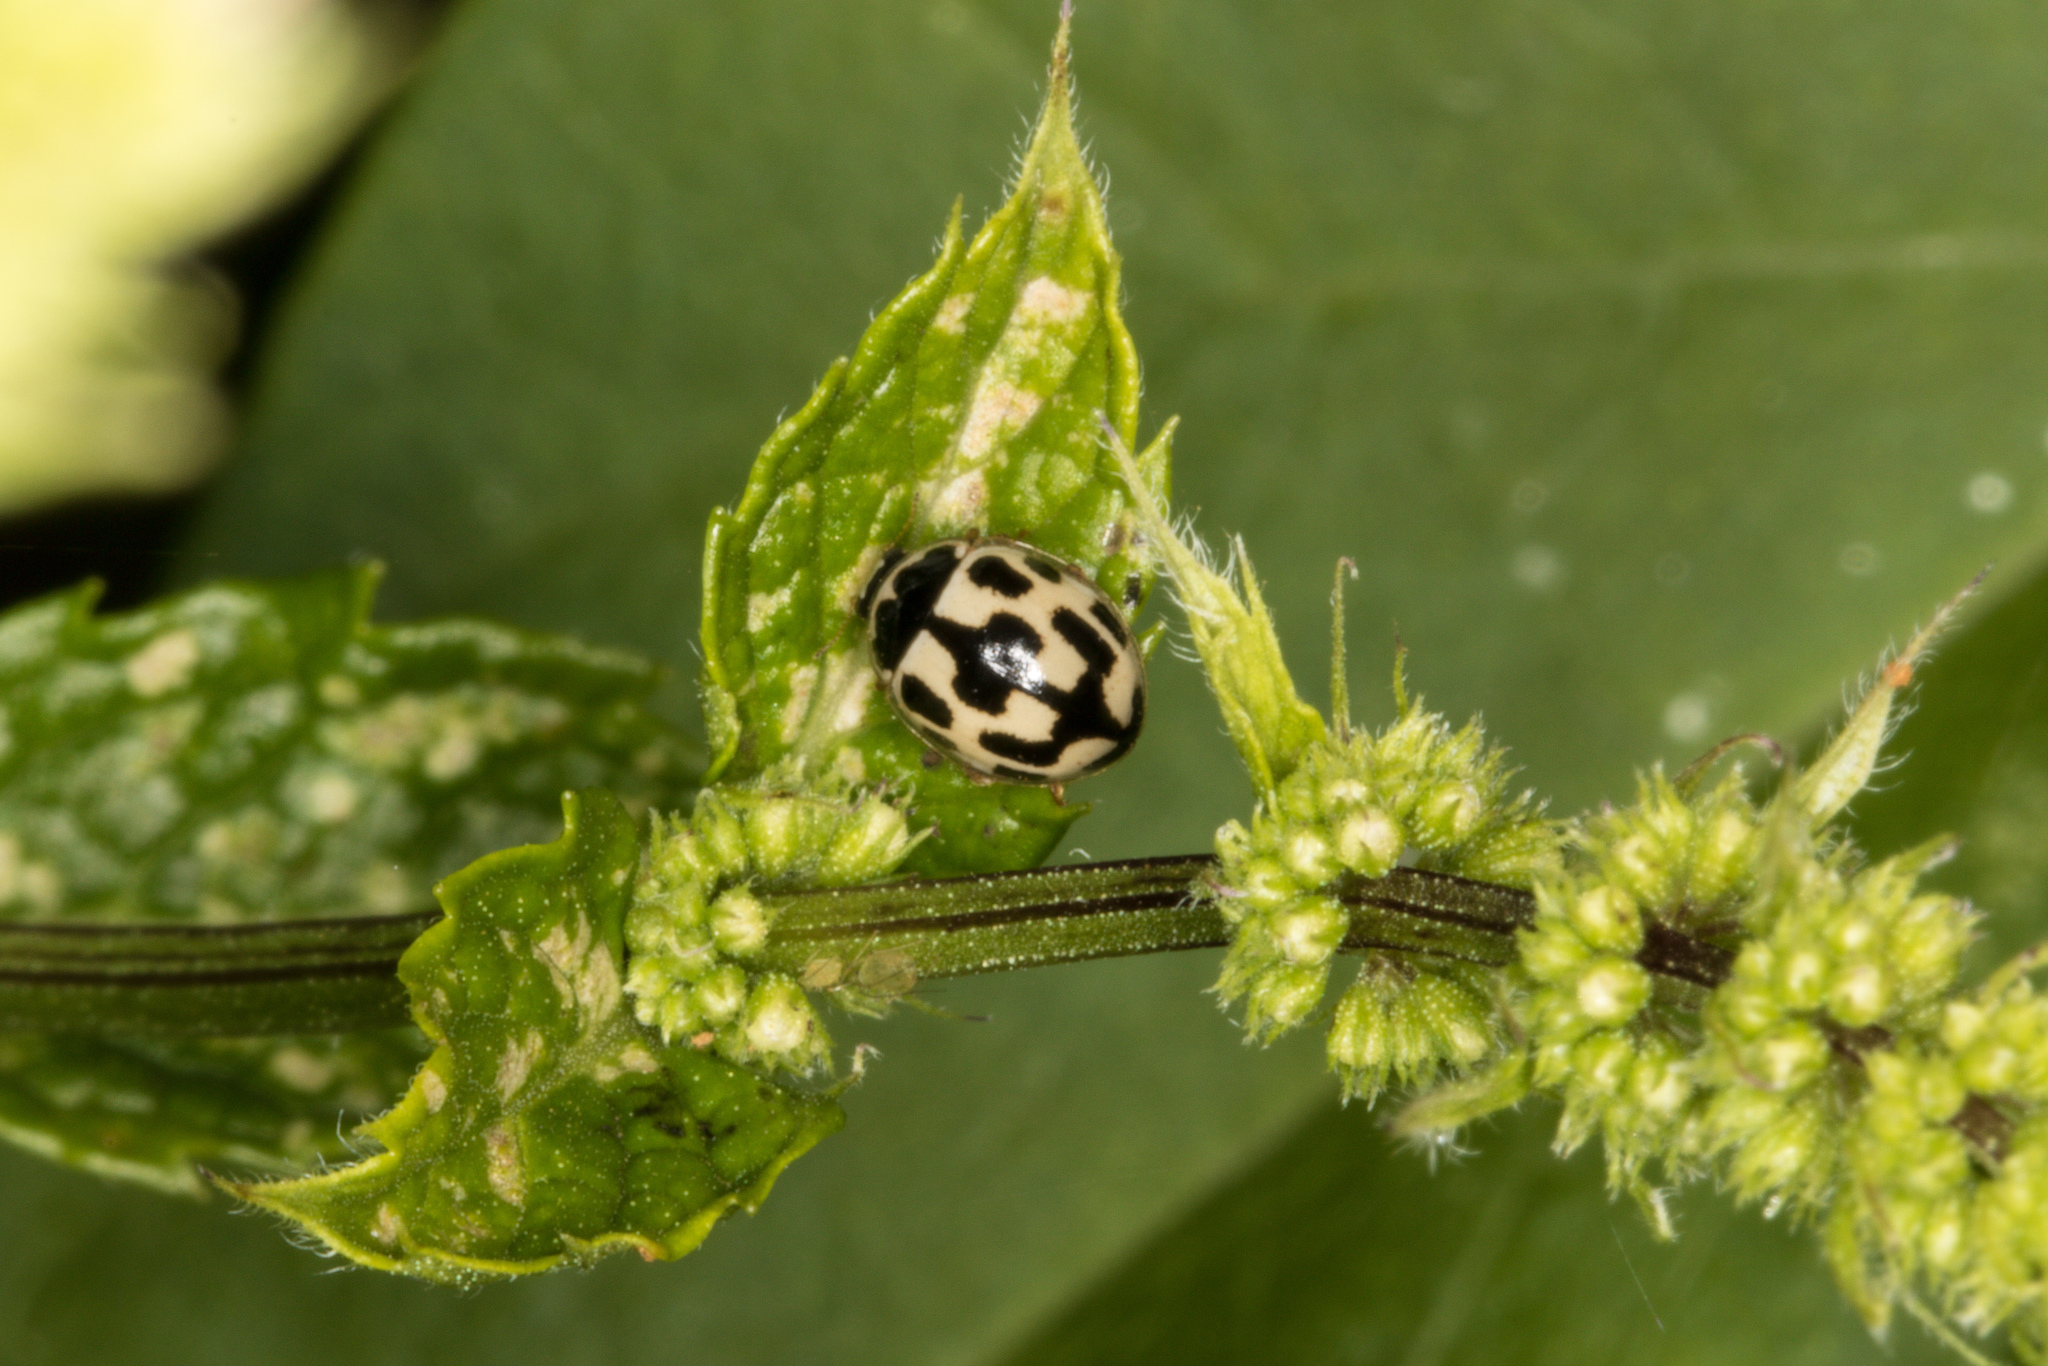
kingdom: Animalia
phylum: Arthropoda
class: Insecta
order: Coleoptera
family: Coccinellidae
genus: Propylaea
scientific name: Propylaea quatuordecimpunctata
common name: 14-spotted ladybird beetle
